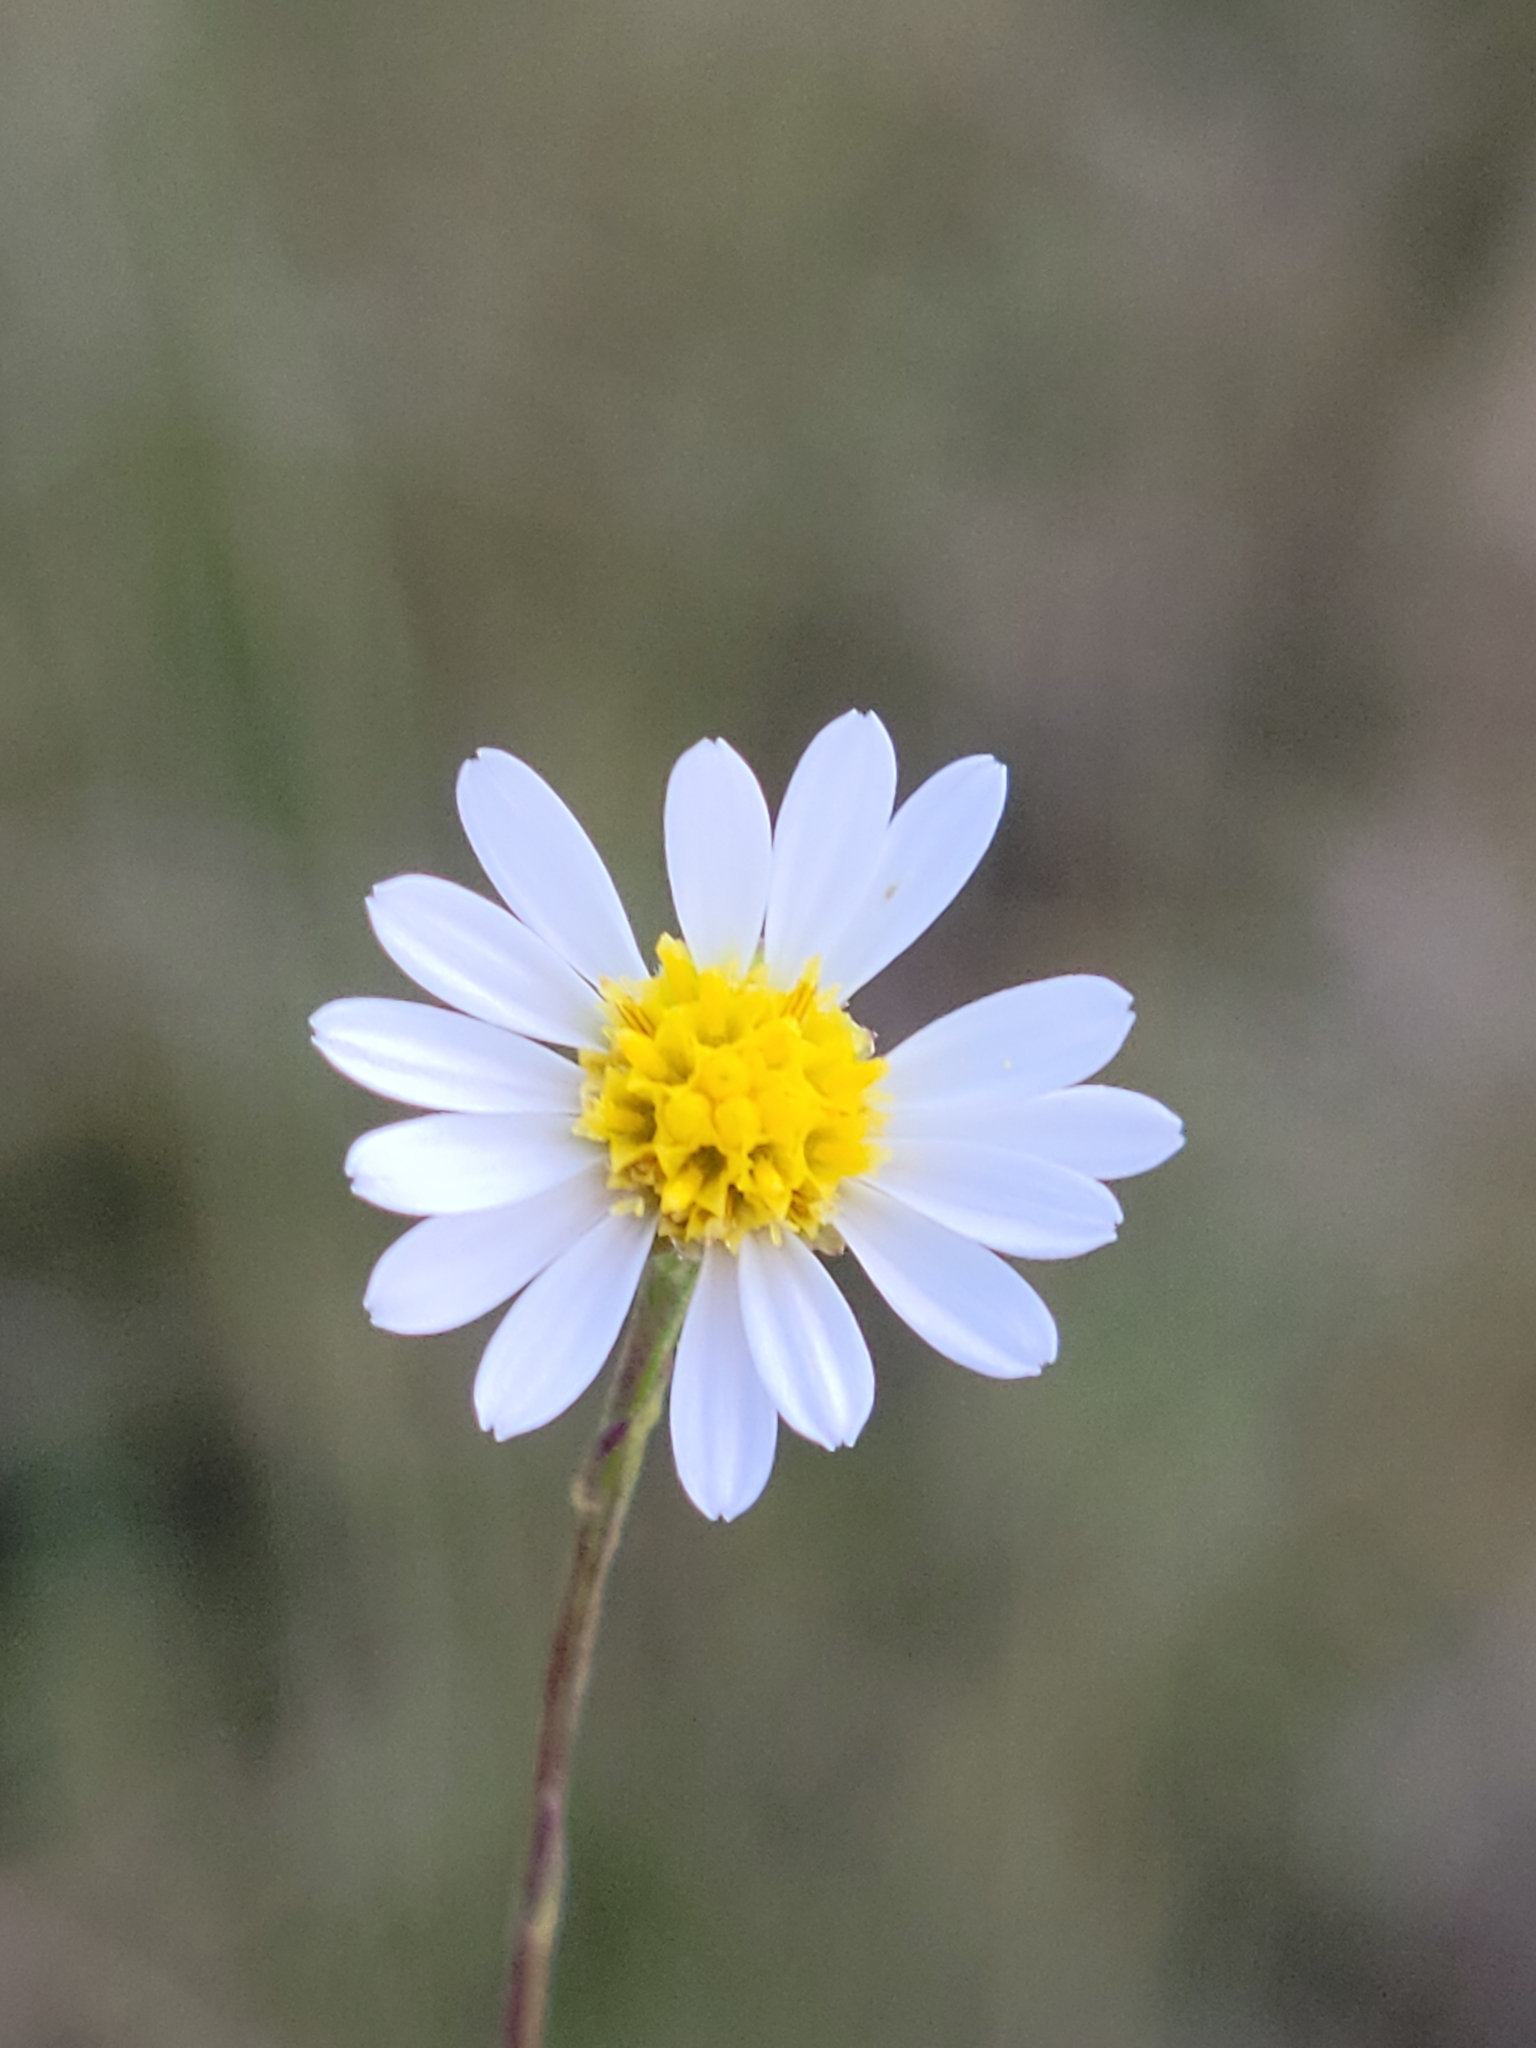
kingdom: Plantae
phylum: Tracheophyta
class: Magnoliopsida
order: Asterales
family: Asteraceae
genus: Symphyotrichum
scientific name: Symphyotrichum dumosum
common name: Bushy aster
